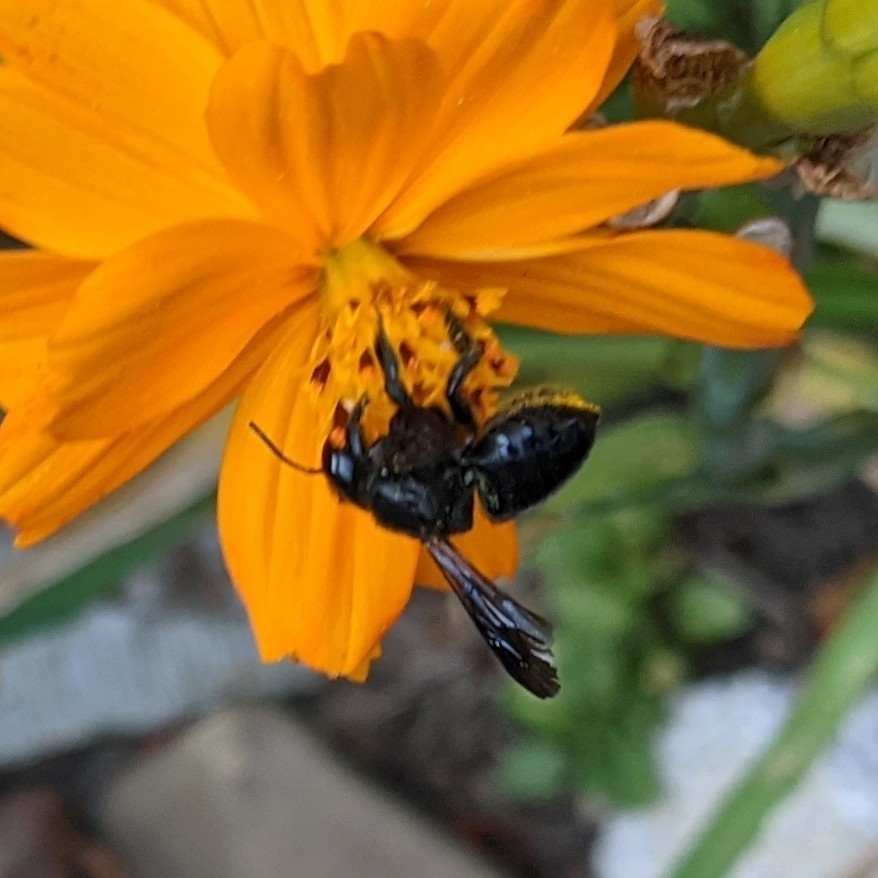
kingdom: Animalia
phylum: Arthropoda
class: Insecta
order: Hymenoptera
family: Megachilidae
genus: Megachile
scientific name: Megachile xylocopoides
